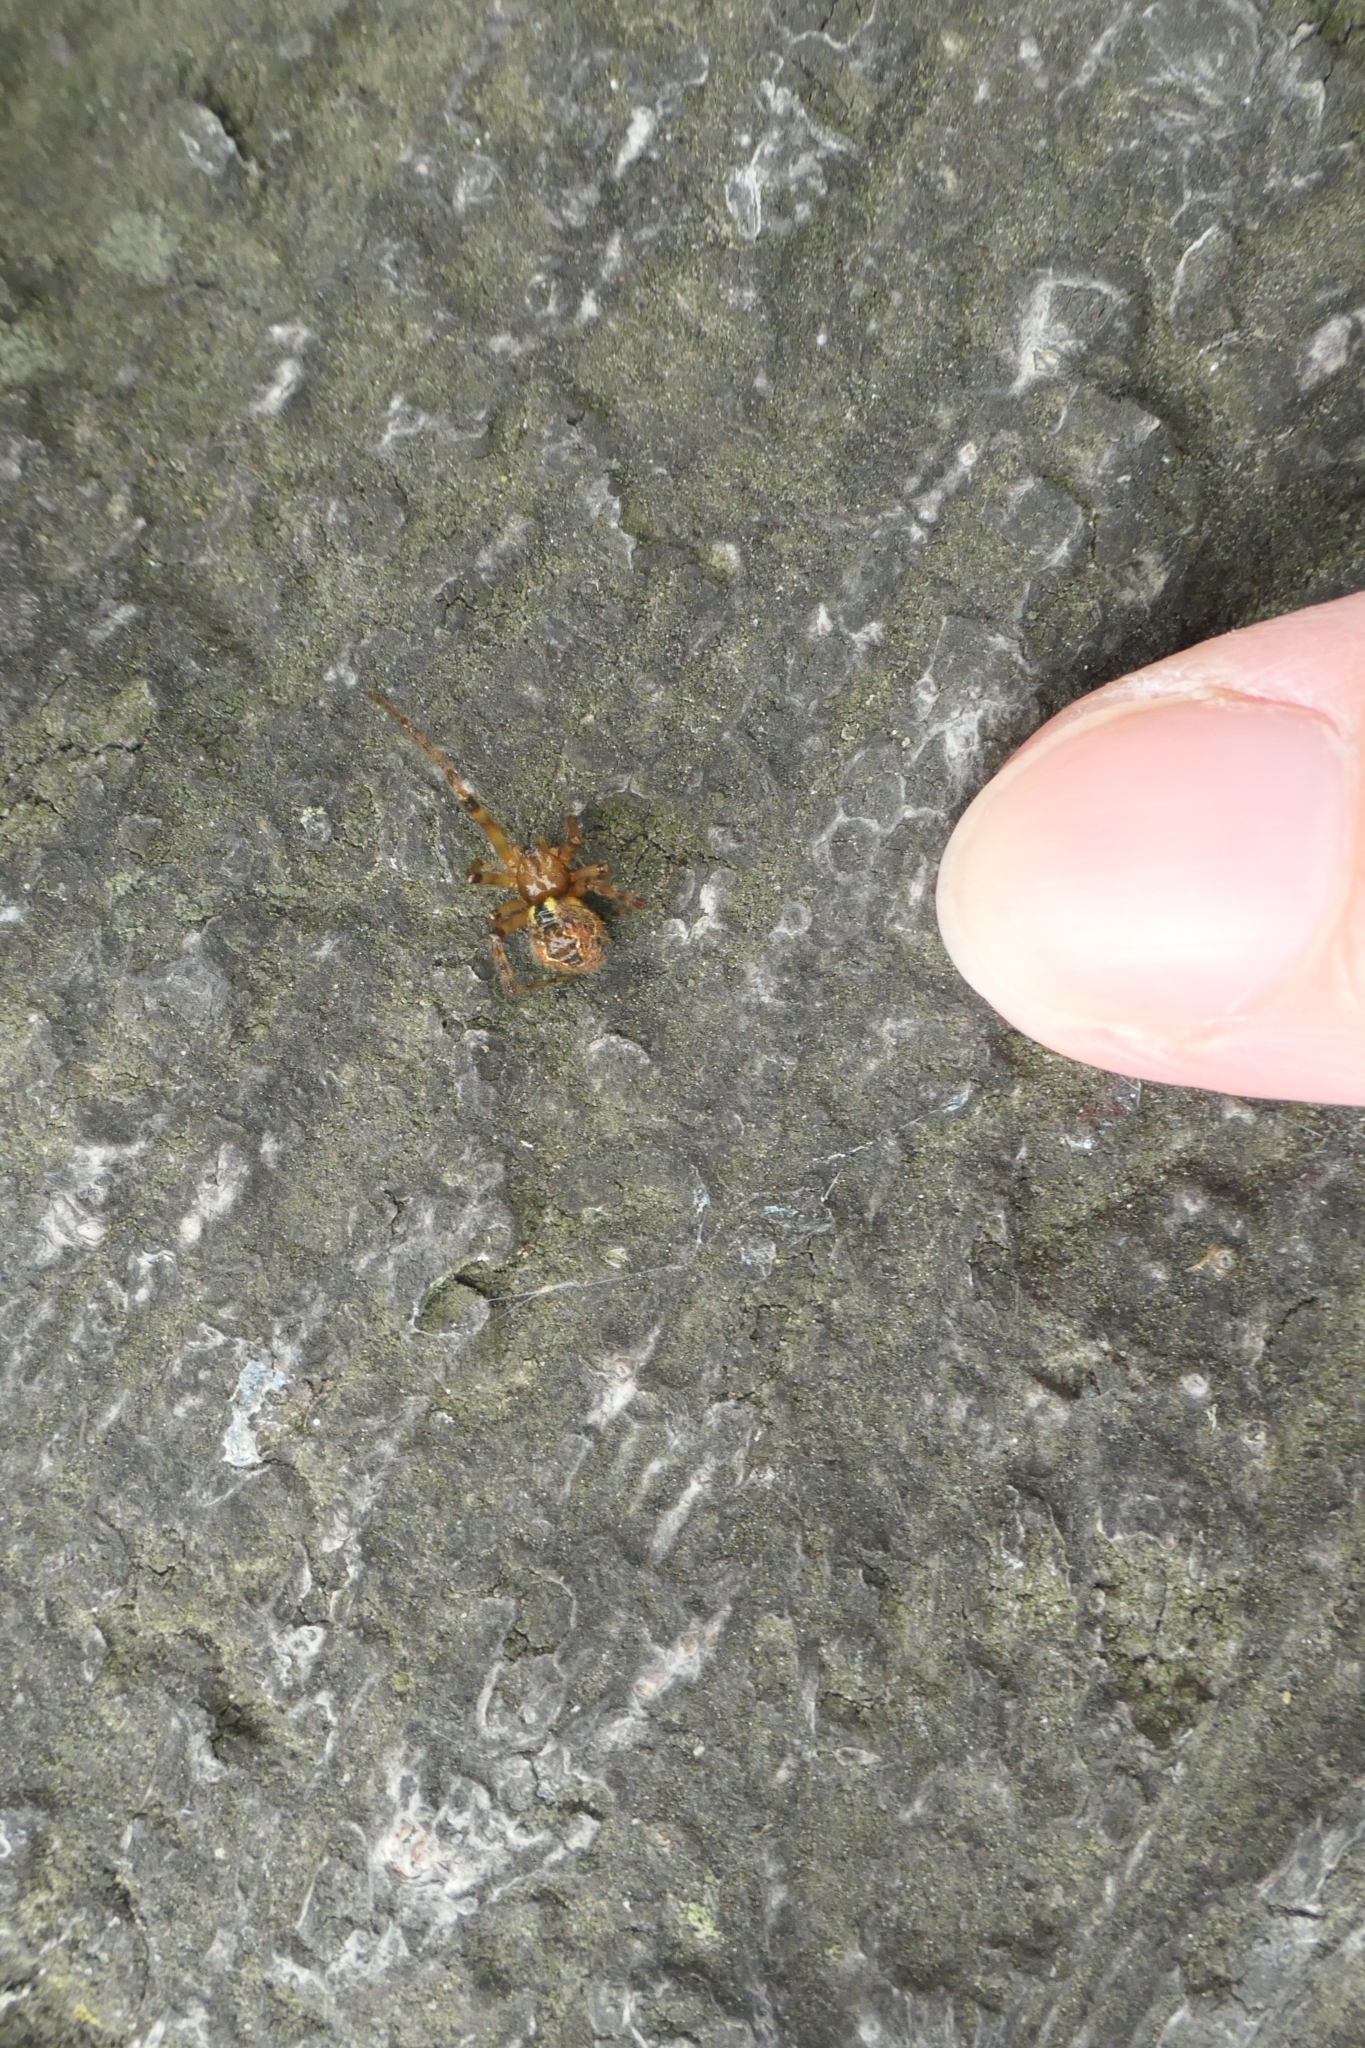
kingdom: Animalia
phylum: Arthropoda
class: Arachnida
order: Araneae
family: Theridiidae
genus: Cryptachaea
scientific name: Cryptachaea veruculata
